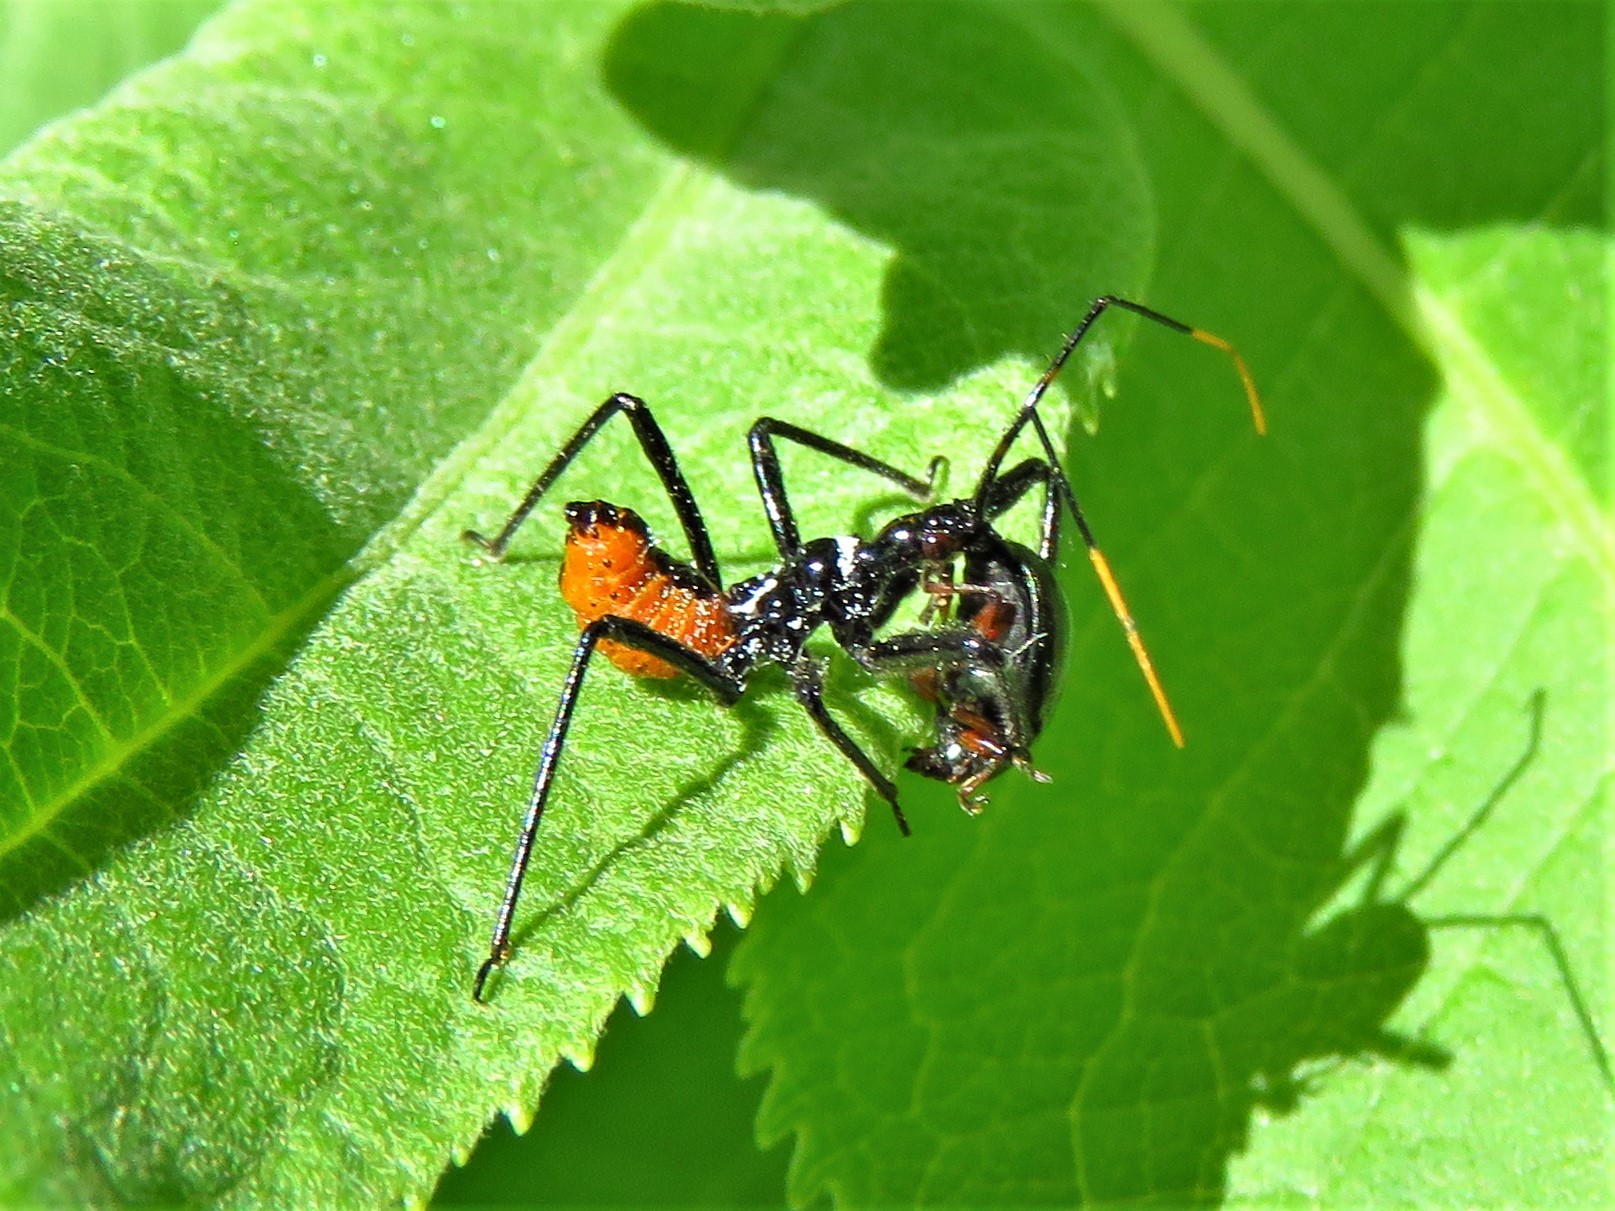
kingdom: Animalia
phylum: Arthropoda
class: Insecta
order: Hemiptera
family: Reduviidae
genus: Arilus
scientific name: Arilus cristatus
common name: North american wheel bug
